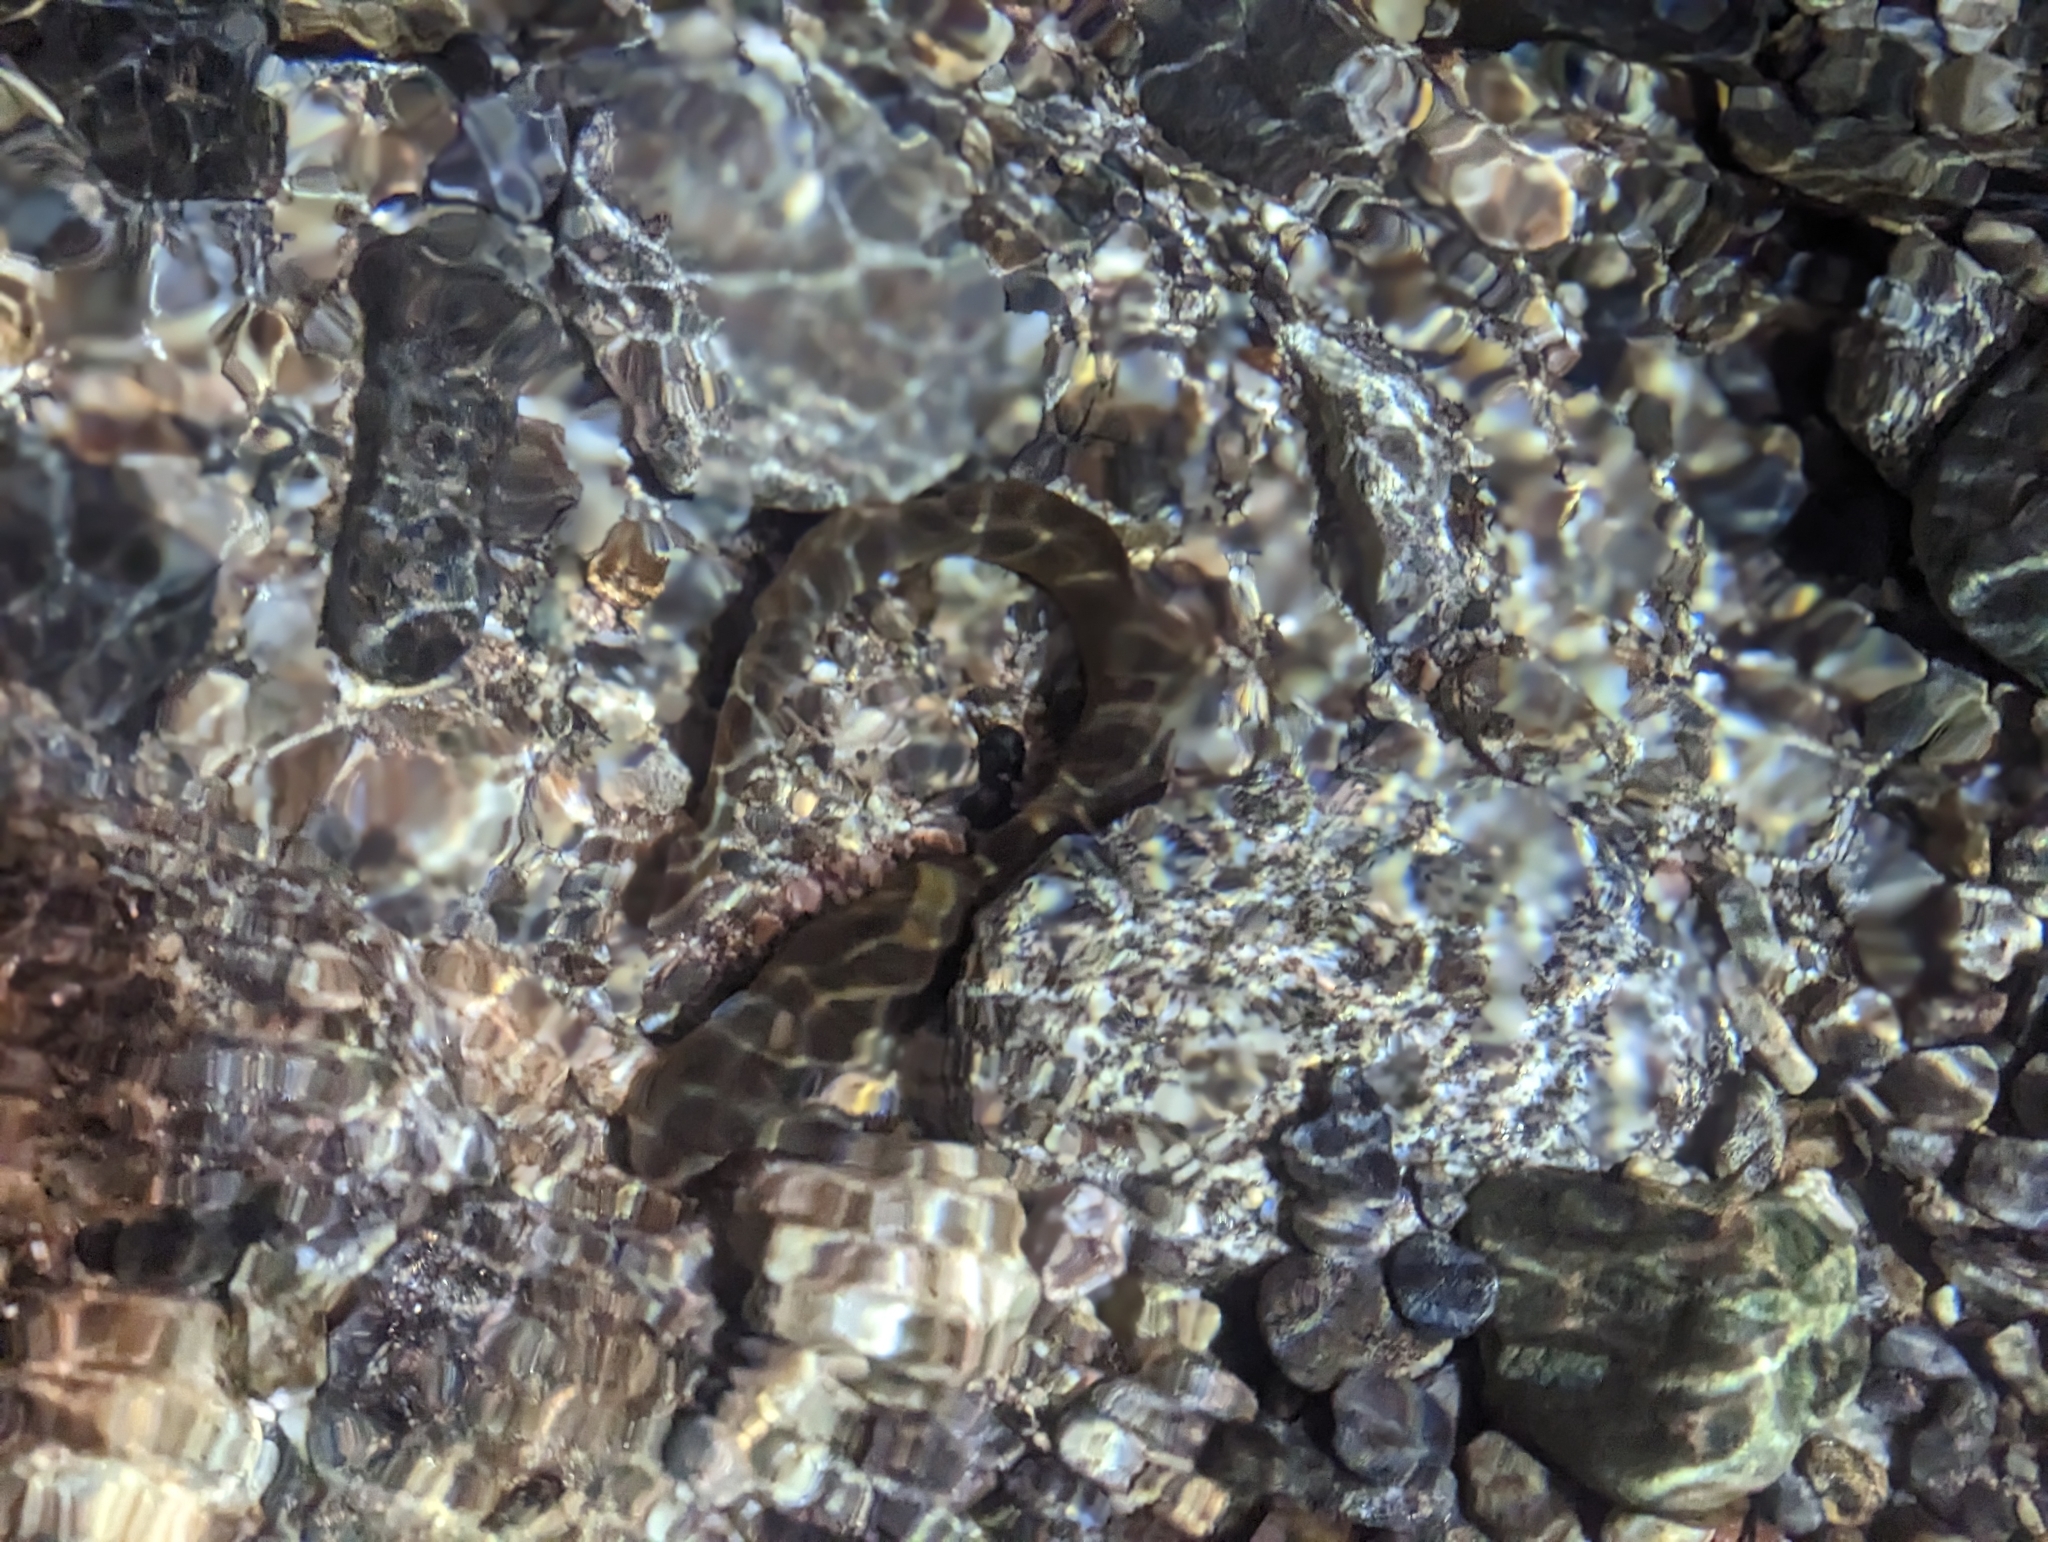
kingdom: Animalia
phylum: Chordata
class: Petromyzonti
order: Petromyzontiformes
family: Petromyzontidae
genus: Entosphenus
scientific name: Entosphenus tridentatus
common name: Pacific lamprey
